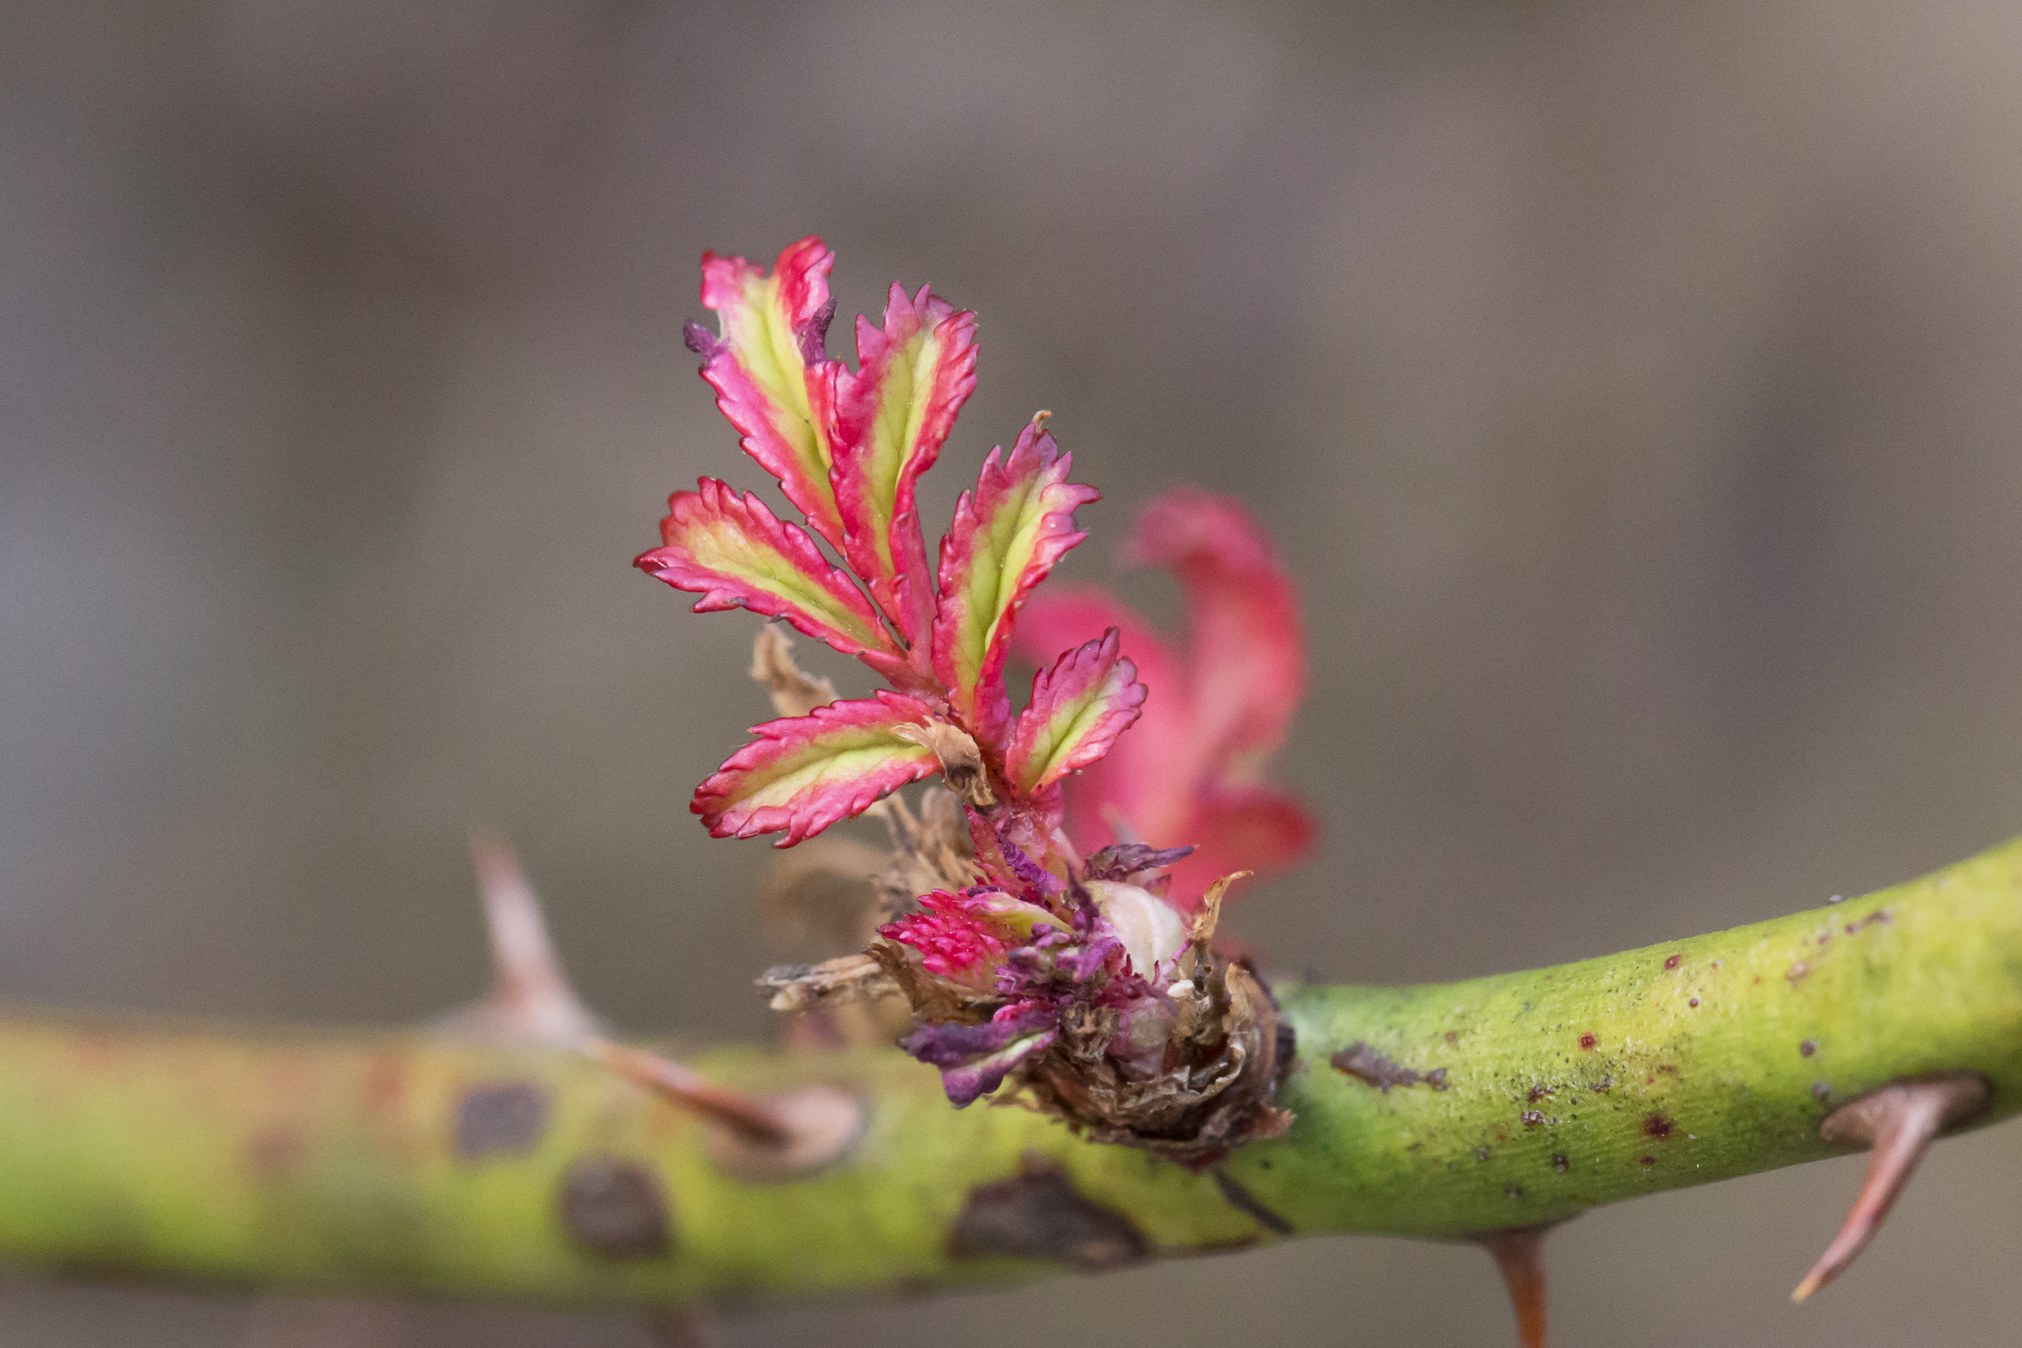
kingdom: Plantae
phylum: Tracheophyta
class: Magnoliopsida
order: Rosales
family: Rosaceae
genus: Rosa
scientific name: Rosa multiflora
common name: Multiflora rose
